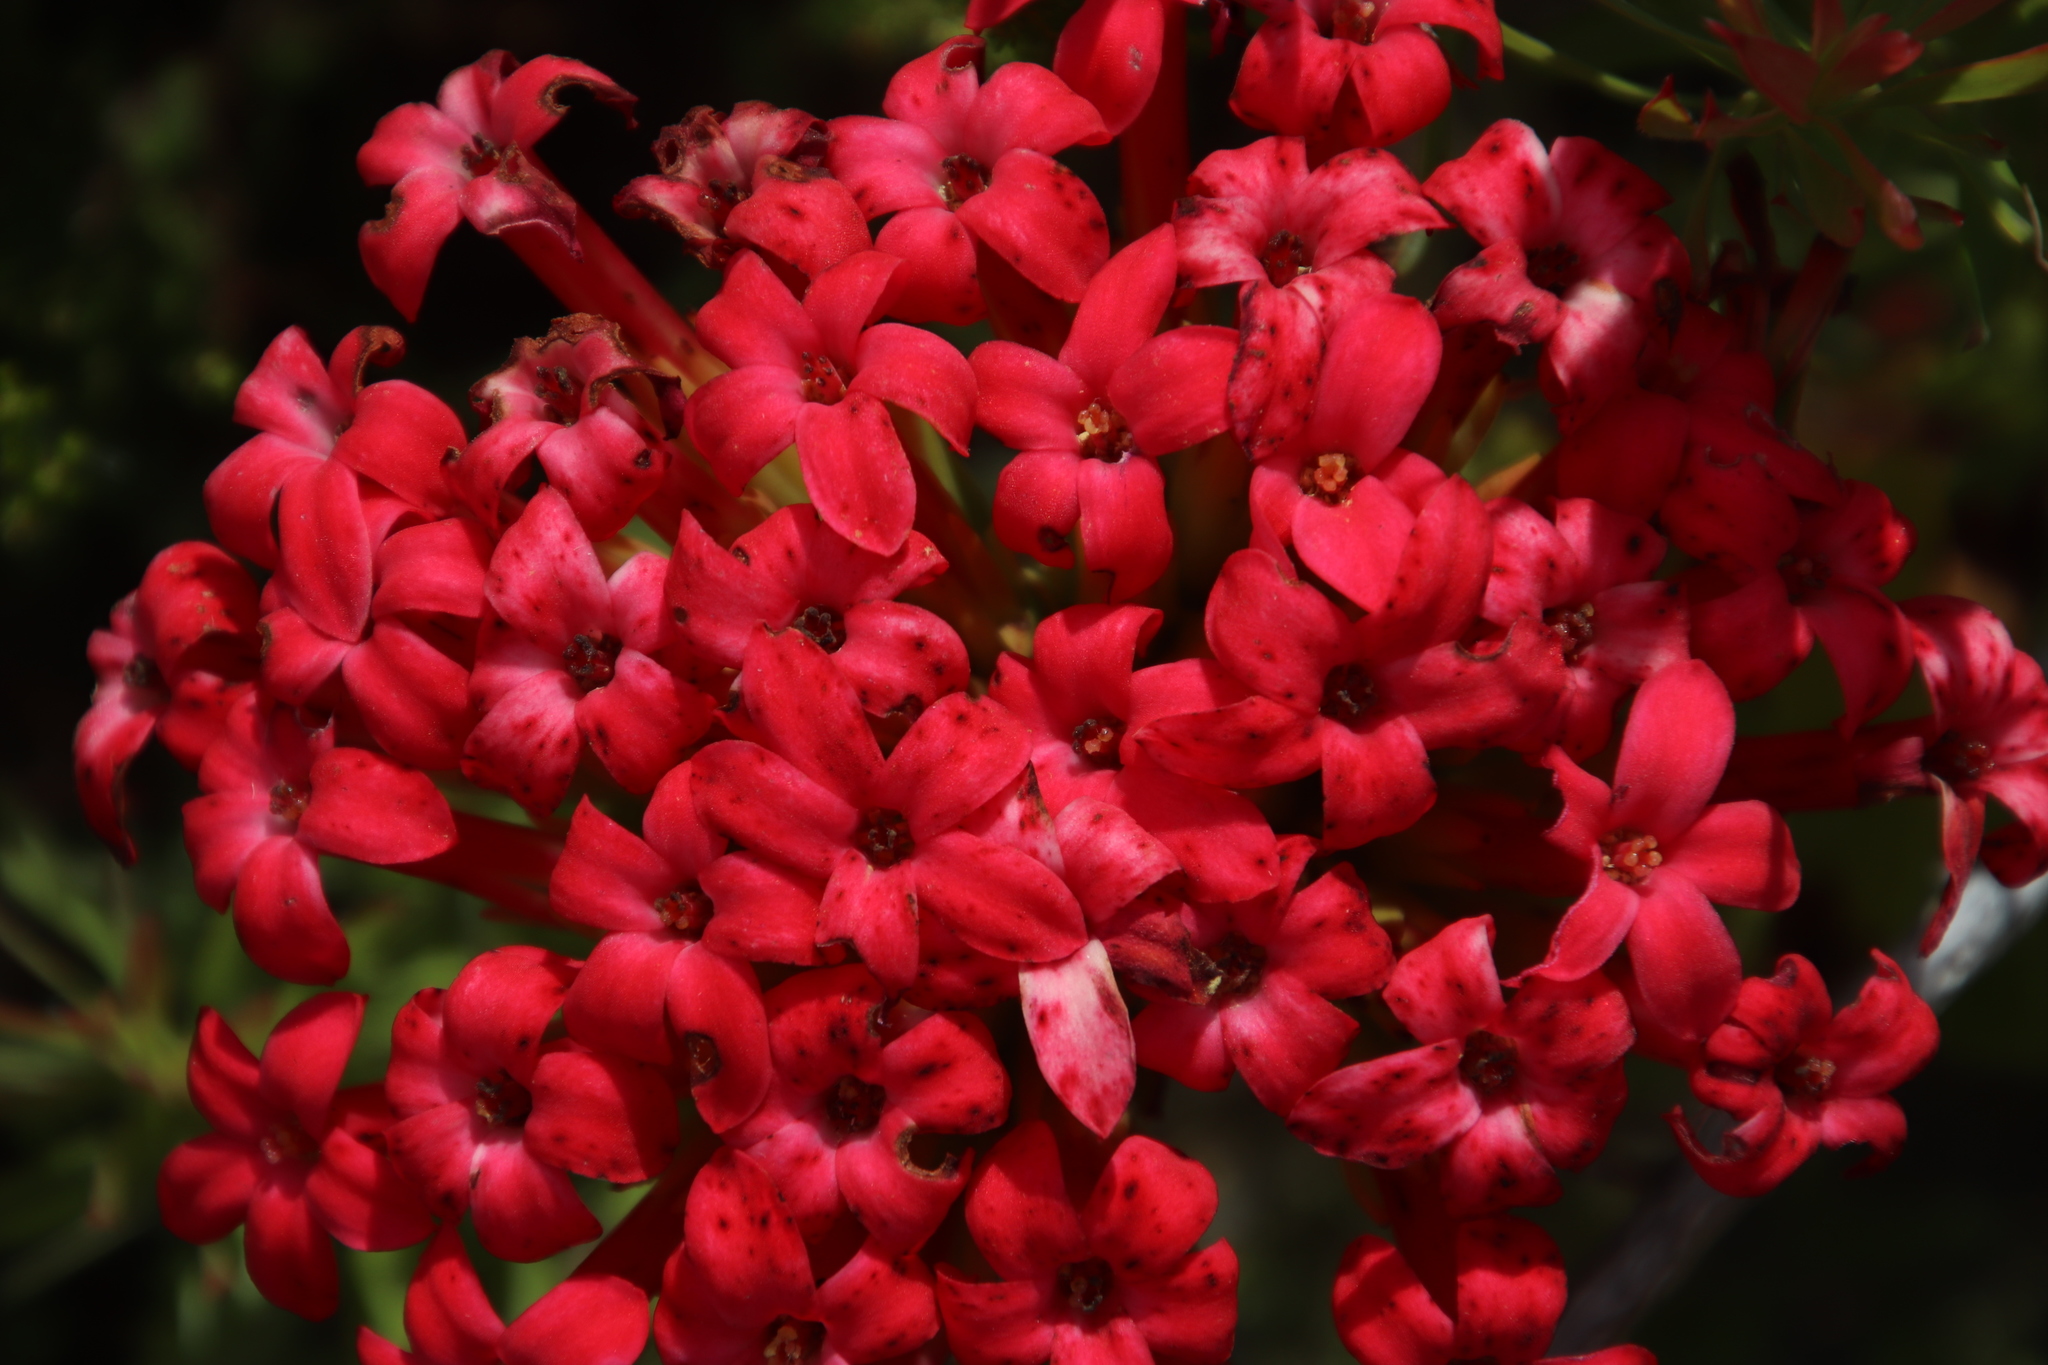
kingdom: Plantae
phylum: Tracheophyta
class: Magnoliopsida
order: Saxifragales
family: Crassulaceae
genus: Crassula
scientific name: Crassula coccinea
